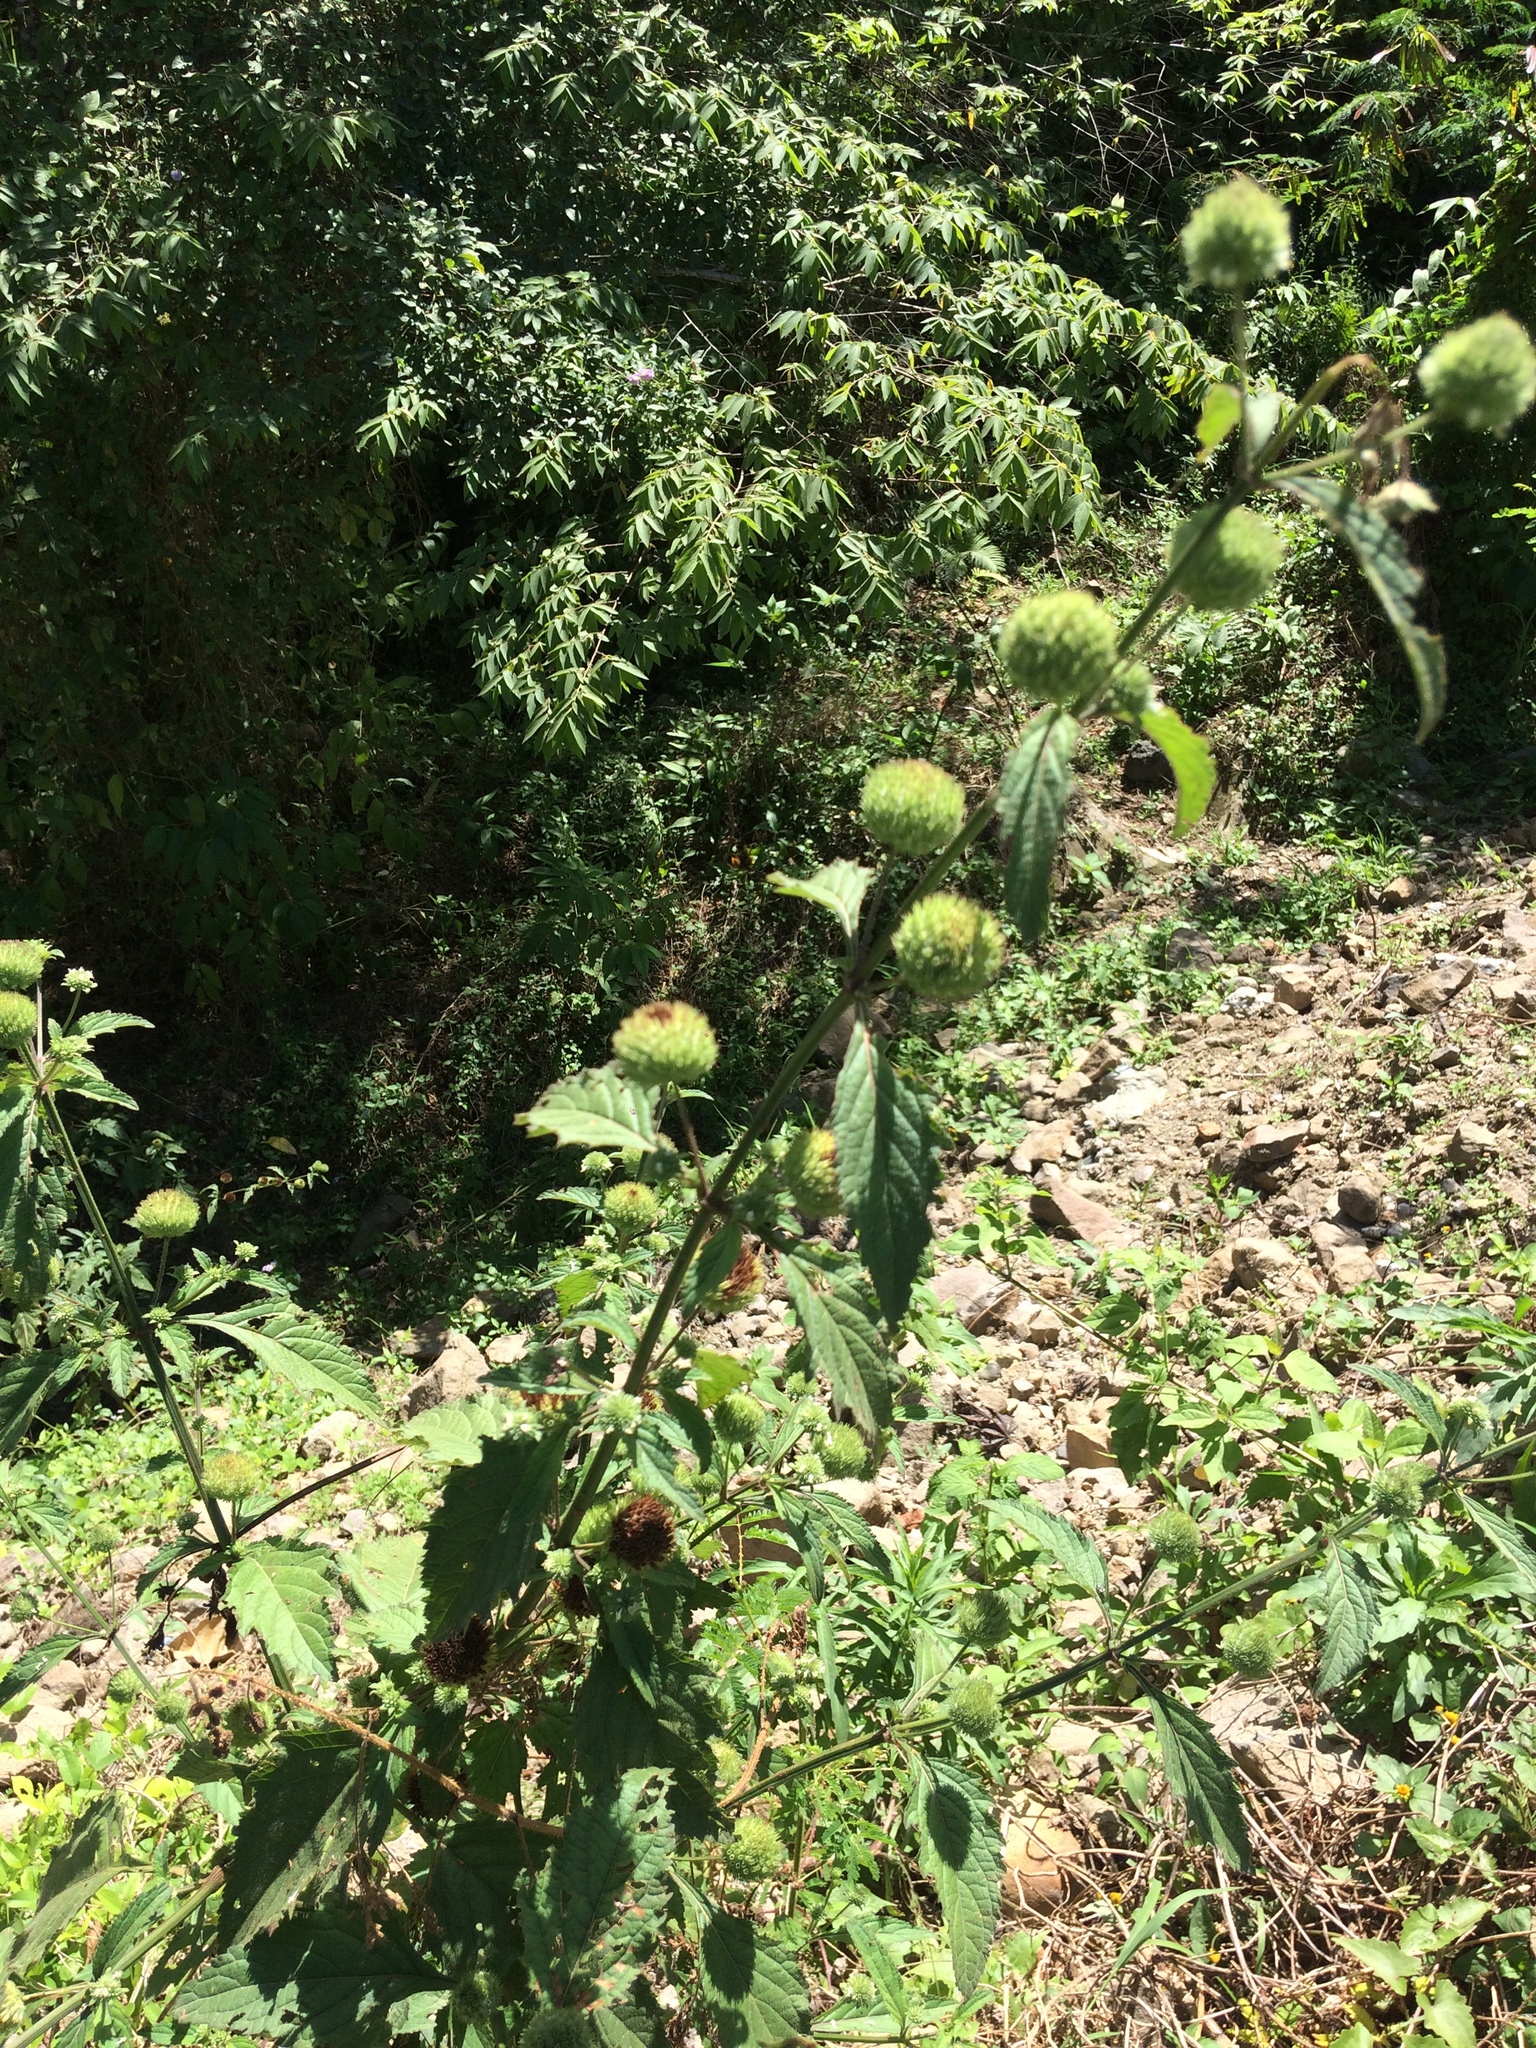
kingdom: Plantae
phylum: Tracheophyta
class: Magnoliopsida
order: Lamiales
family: Lamiaceae
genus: Hyptis
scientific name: Hyptis capitata
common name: False ironwort
